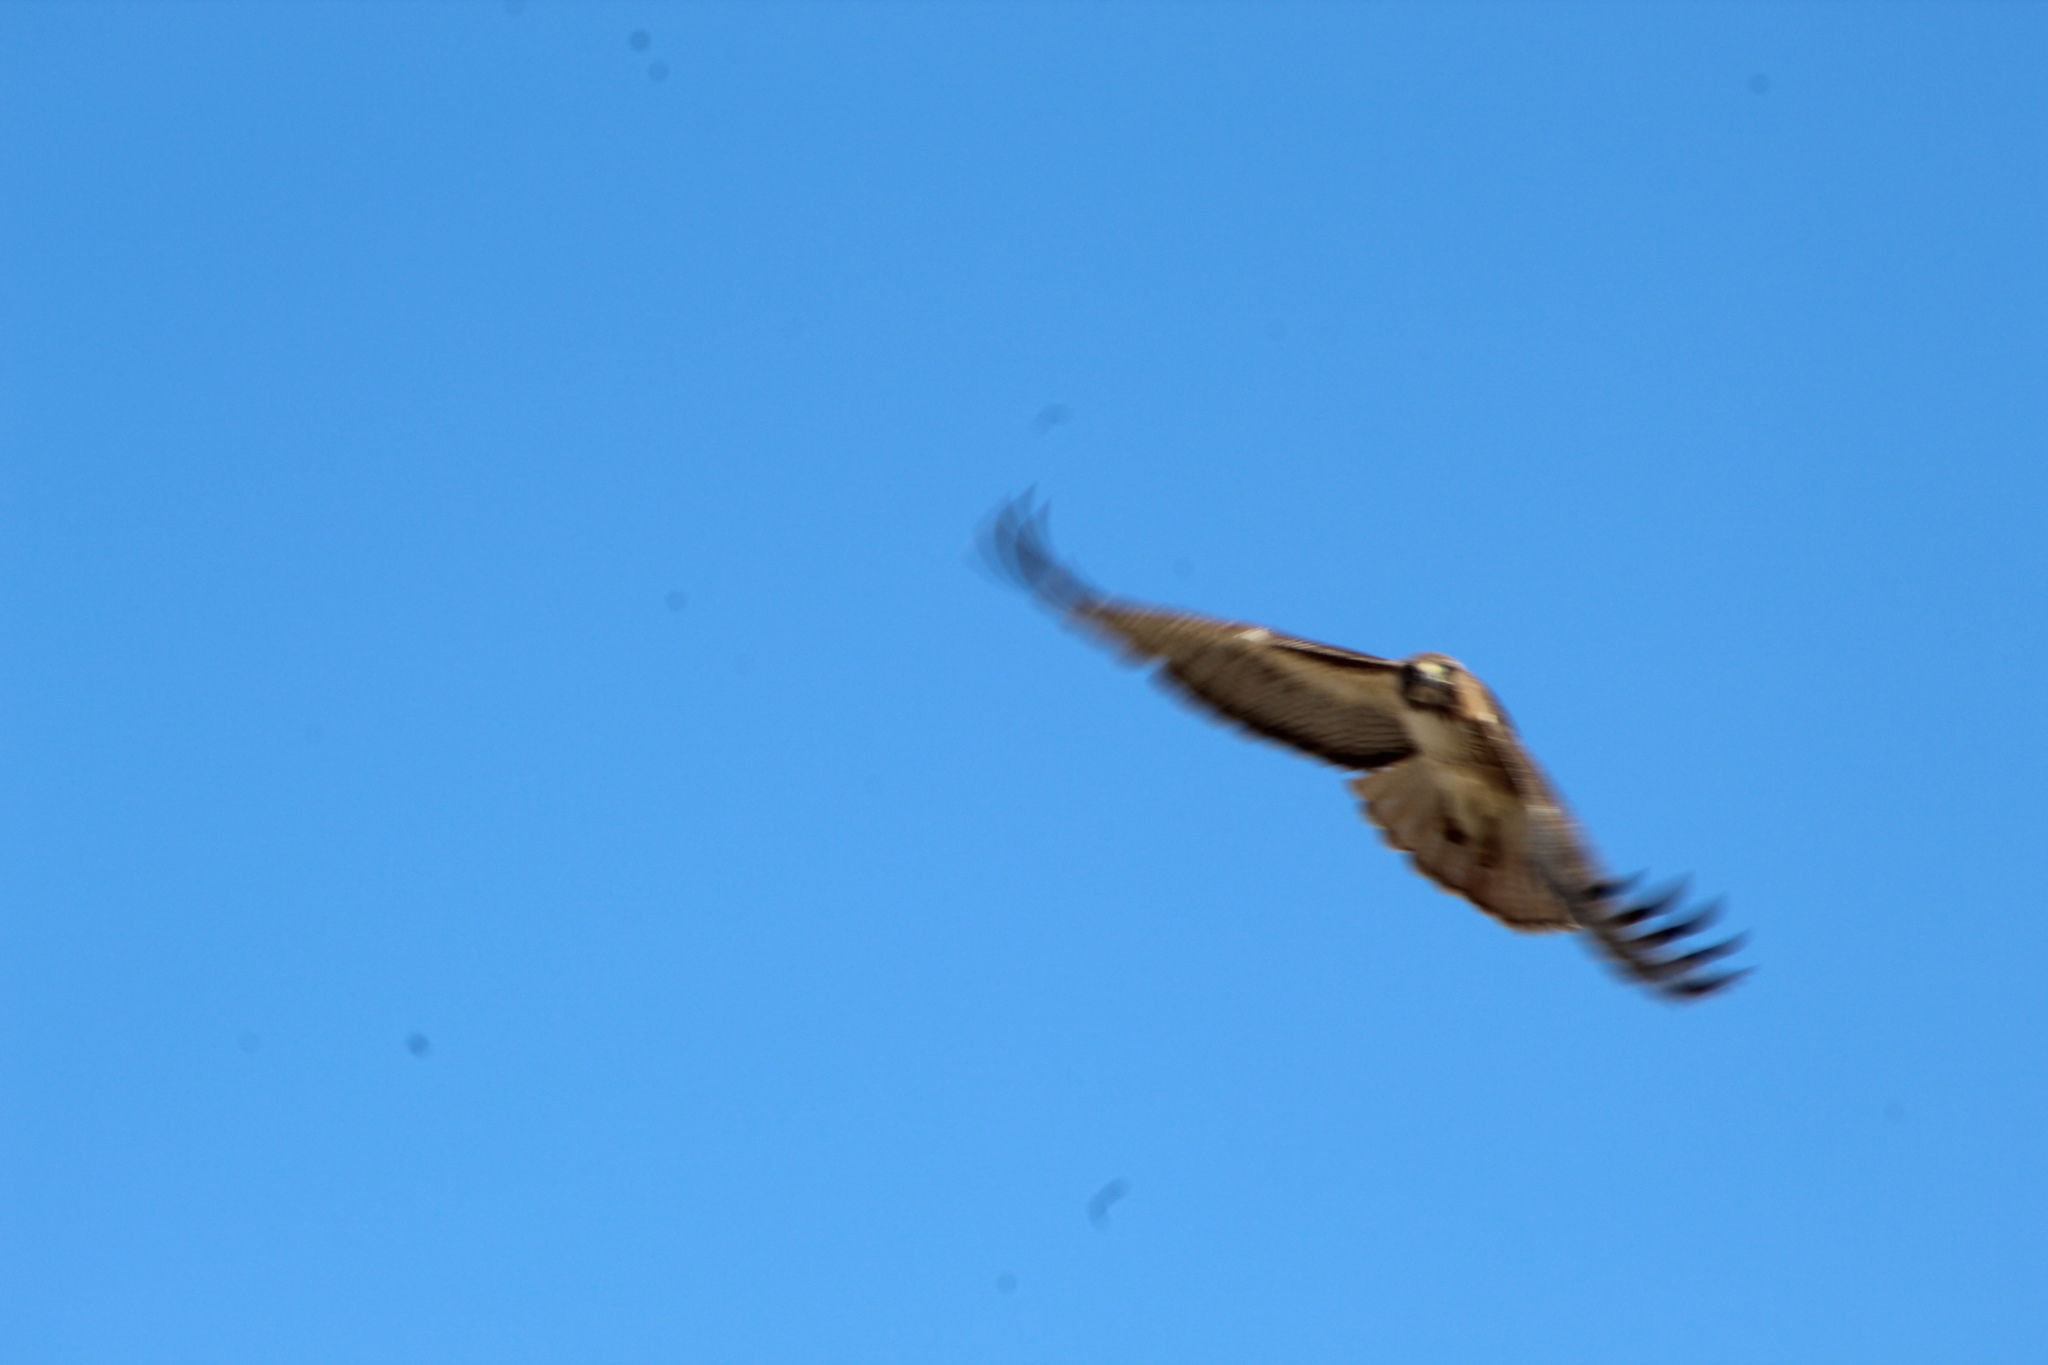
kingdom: Animalia
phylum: Chordata
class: Aves
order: Accipitriformes
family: Accipitridae
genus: Buteo
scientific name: Buteo jamaicensis
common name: Red-tailed hawk
